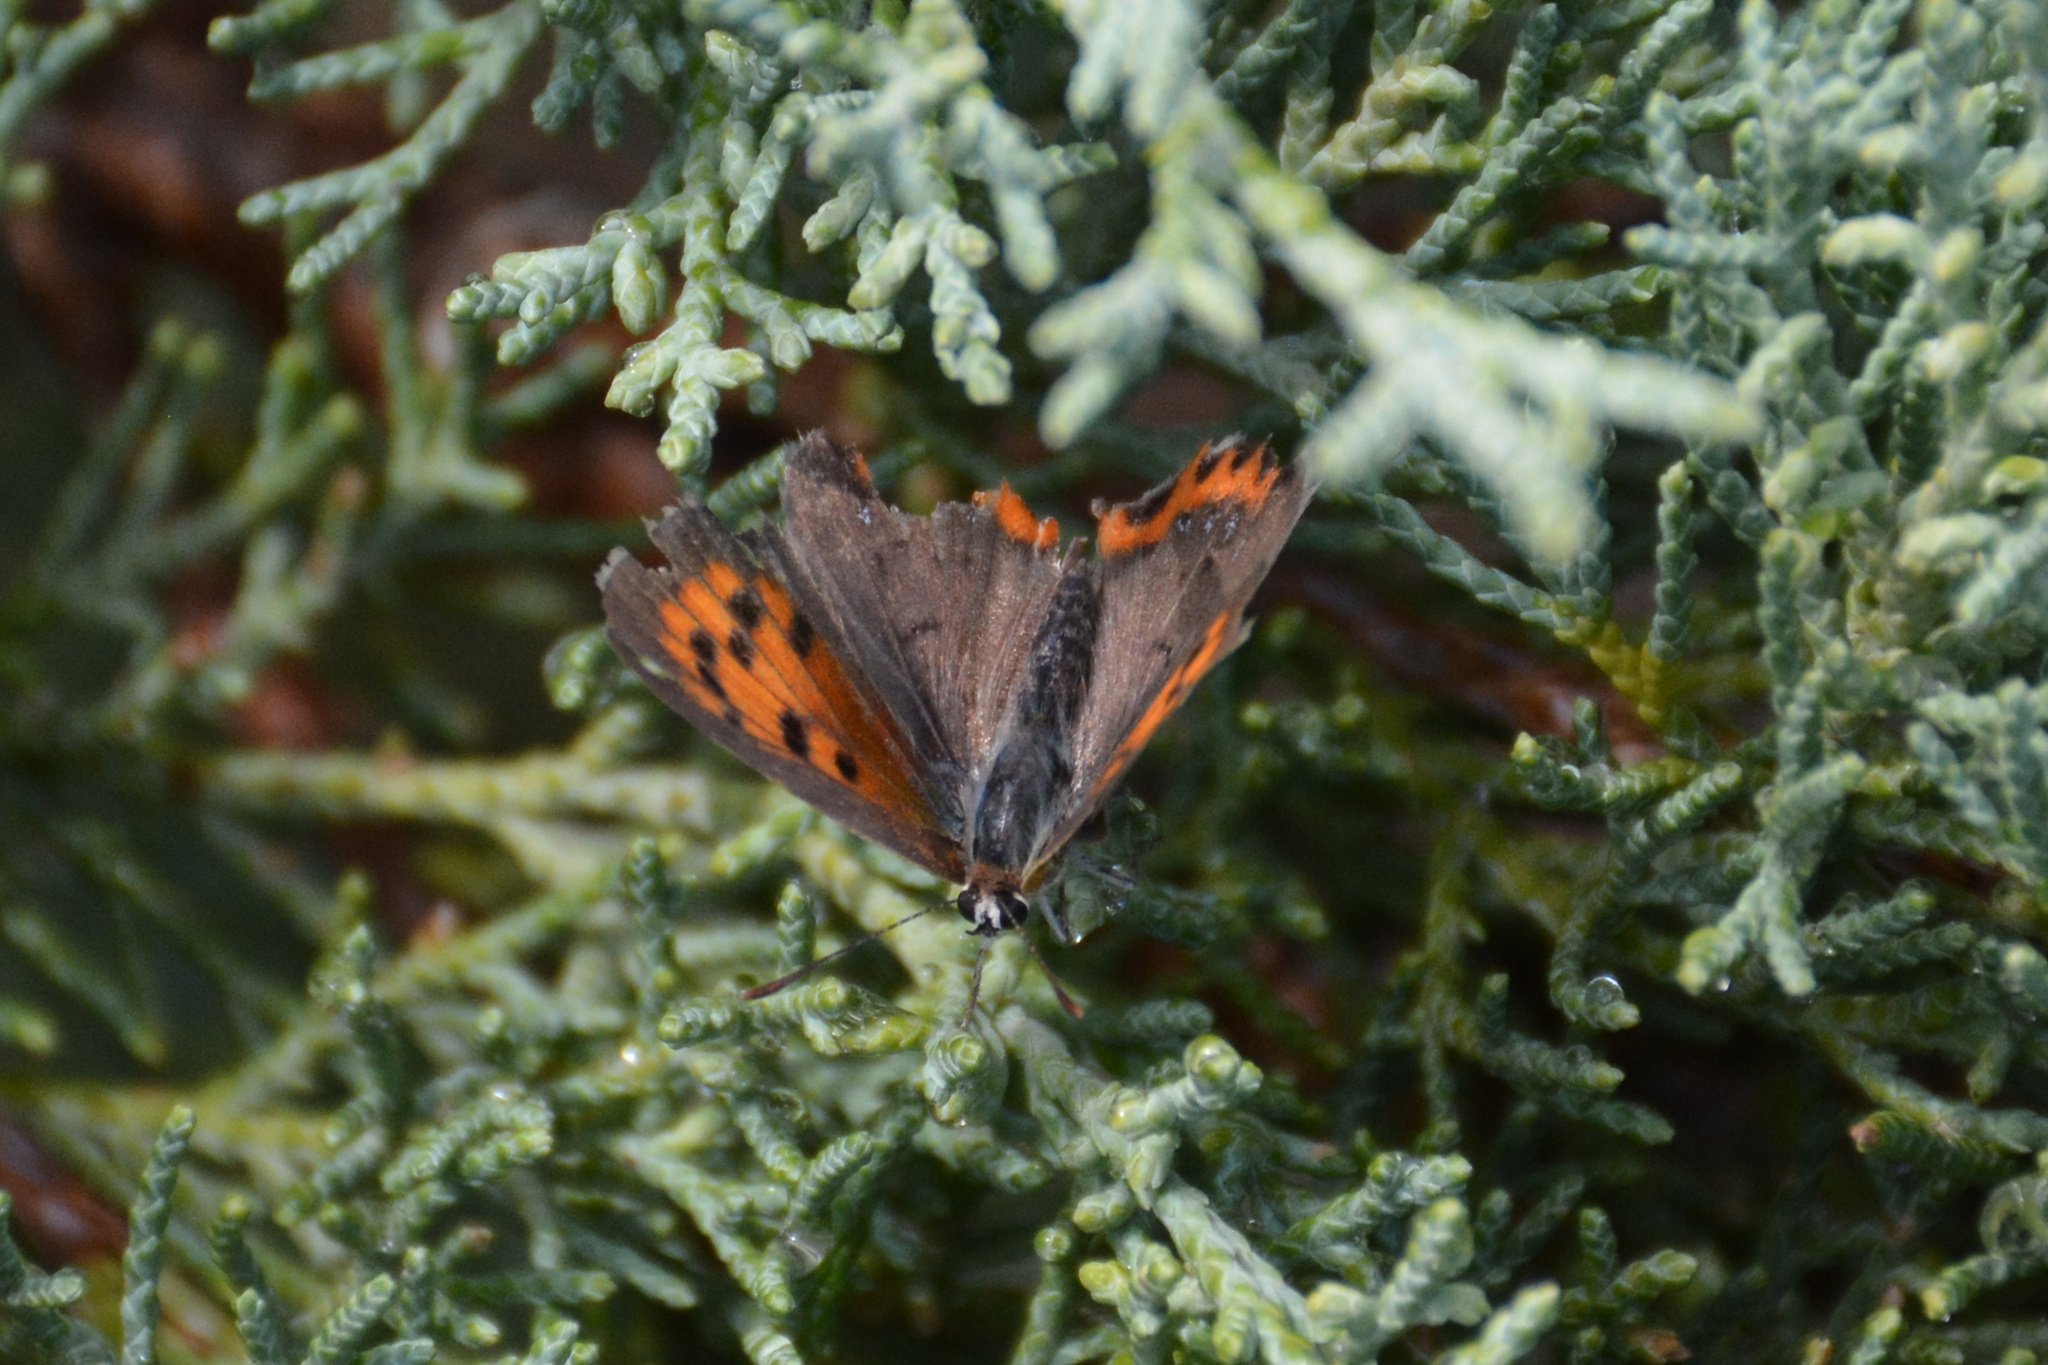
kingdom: Animalia
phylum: Arthropoda
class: Insecta
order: Lepidoptera
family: Lycaenidae
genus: Lycaena
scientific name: Lycaena phlaeas
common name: Small copper
